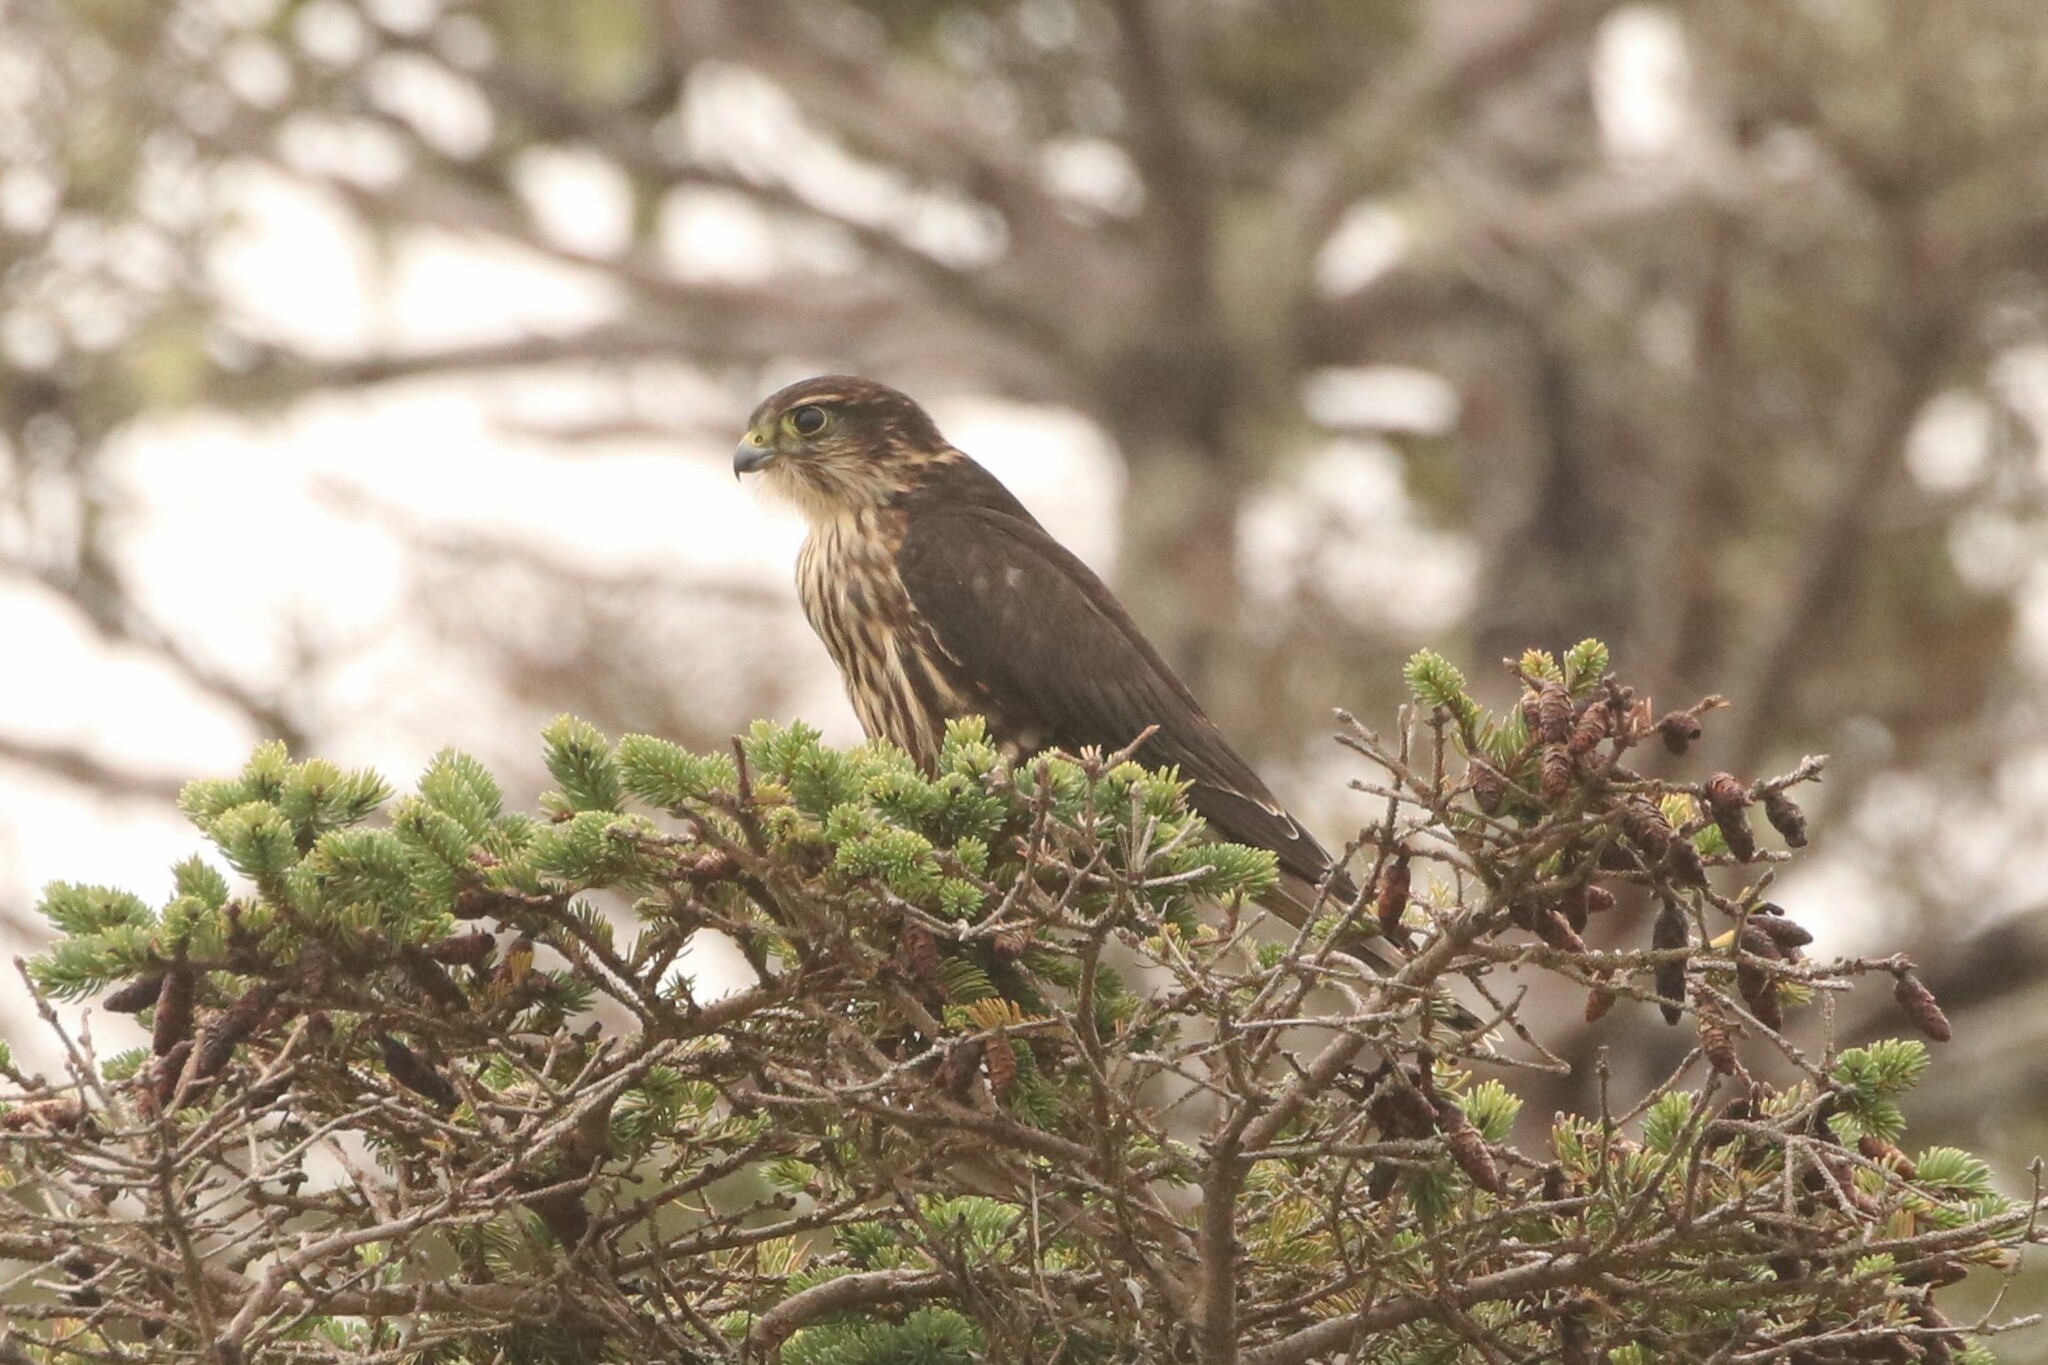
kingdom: Animalia
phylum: Chordata
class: Aves
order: Falconiformes
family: Falconidae
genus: Falco
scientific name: Falco columbarius
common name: Merlin
